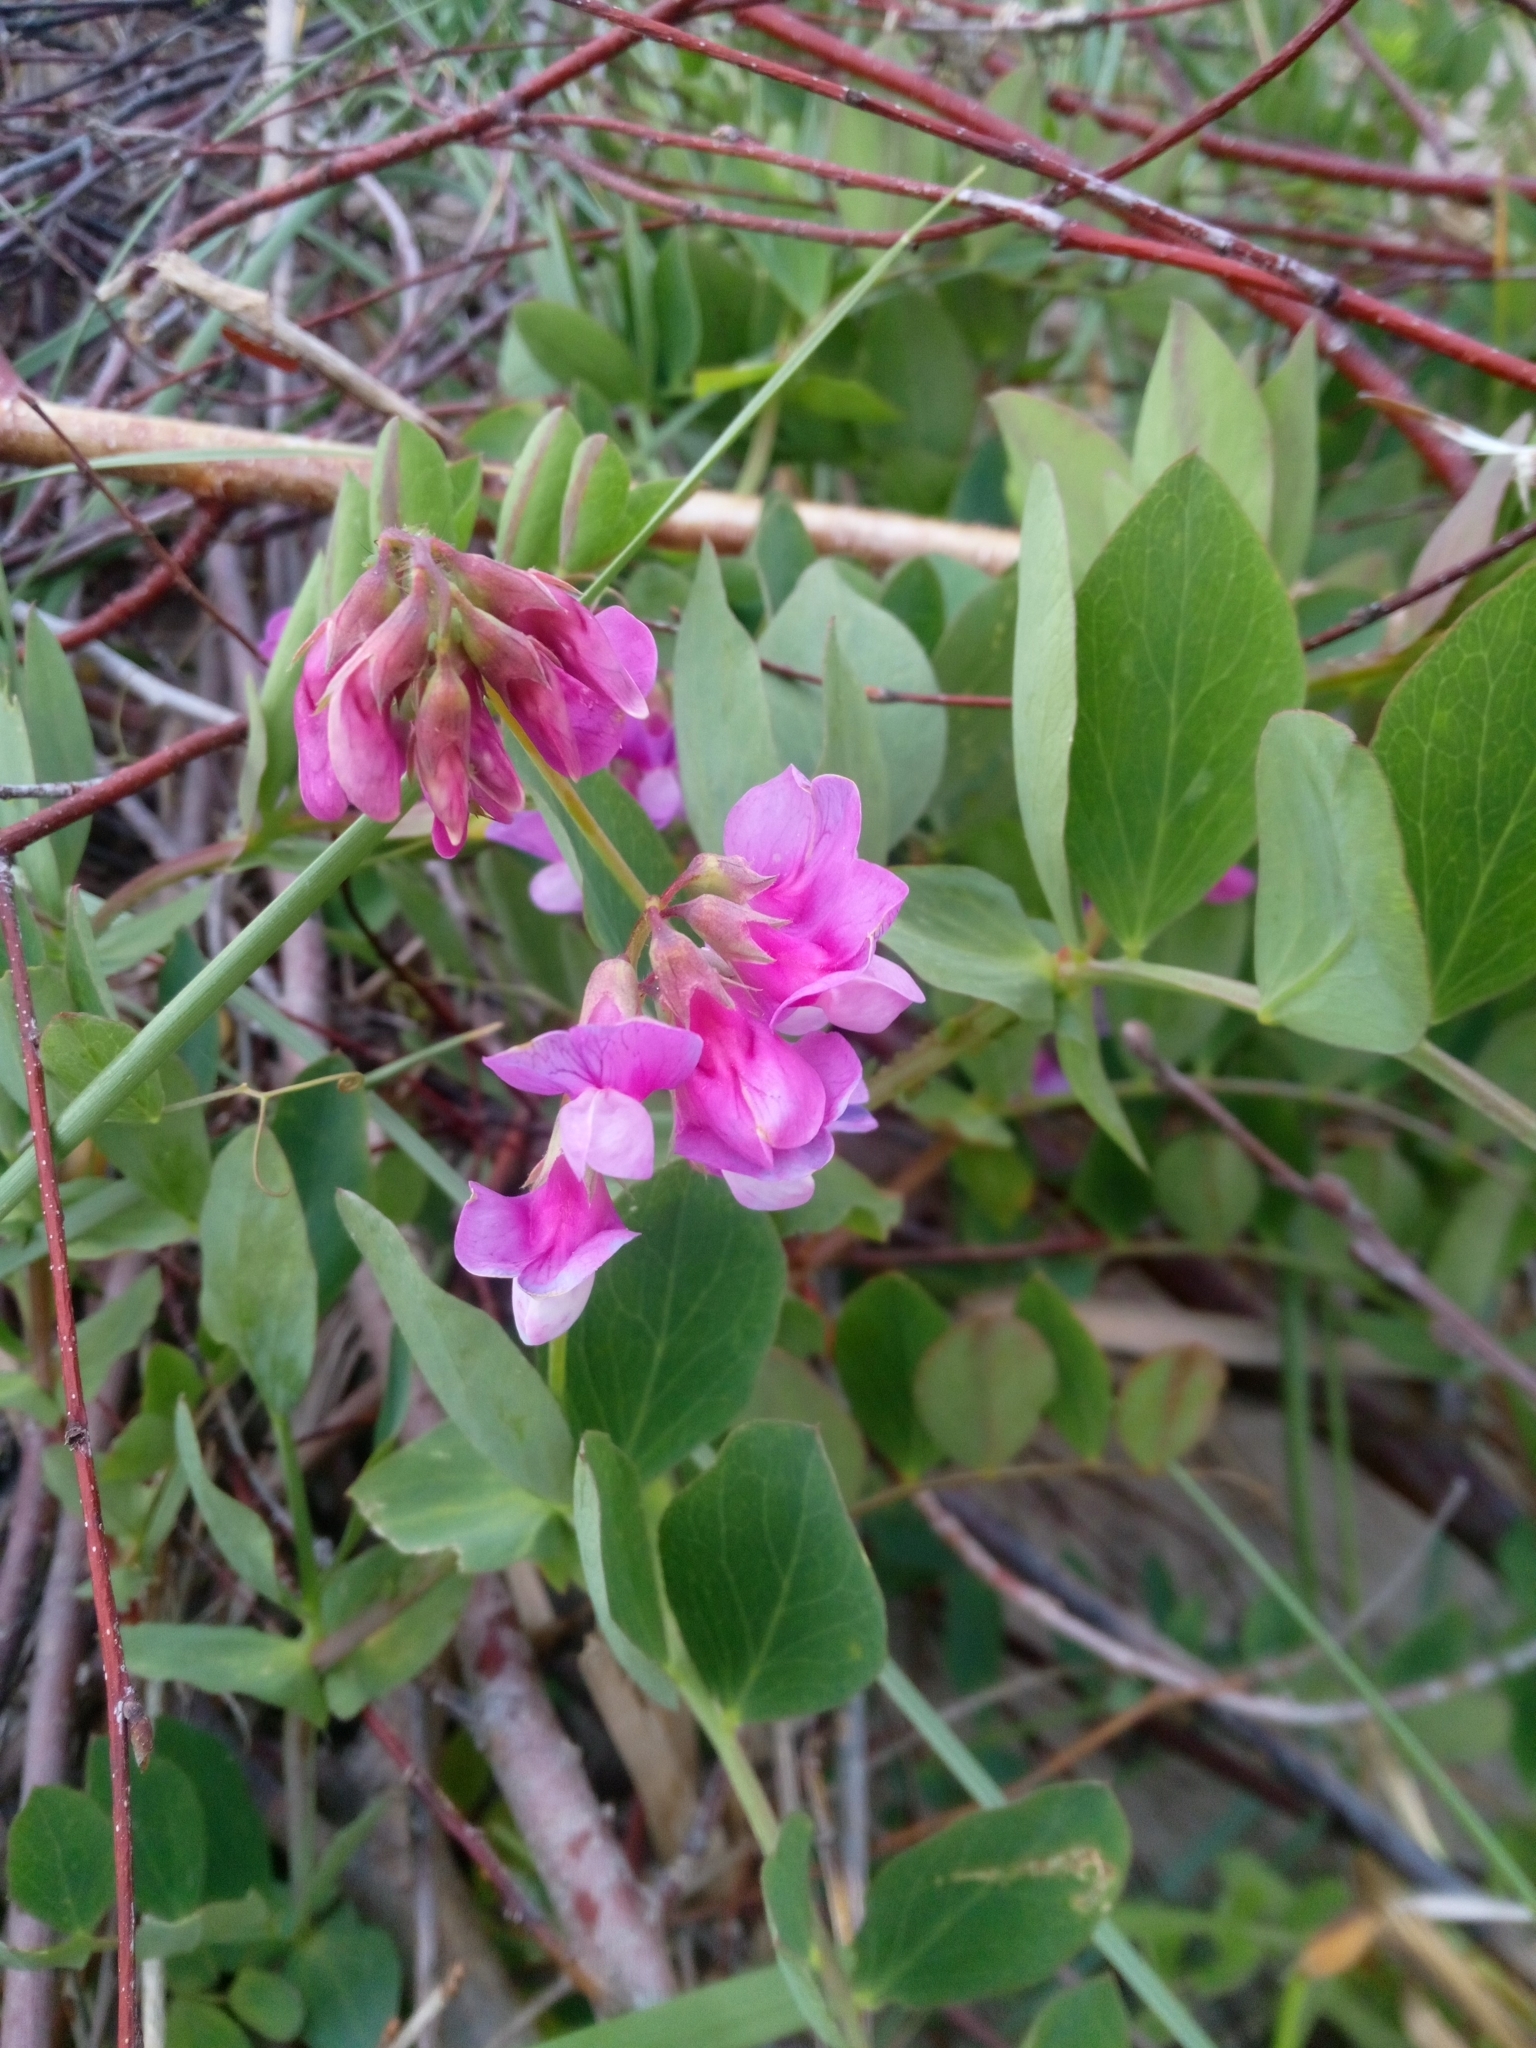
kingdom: Plantae
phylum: Tracheophyta
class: Magnoliopsida
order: Fabales
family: Fabaceae
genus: Lathyrus
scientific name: Lathyrus japonicus
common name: Sea pea
